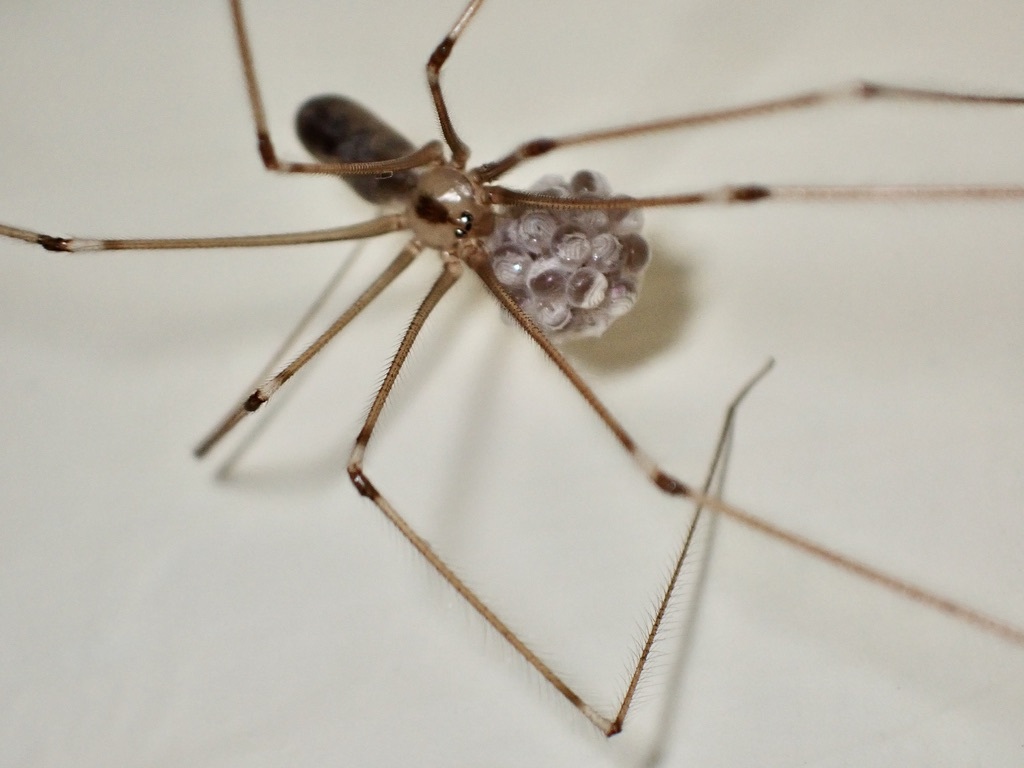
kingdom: Animalia
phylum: Arthropoda
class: Arachnida
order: Araneae
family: Pholcidae
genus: Pholcus
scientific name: Pholcus phalangioides
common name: Longbodied cellar spider
